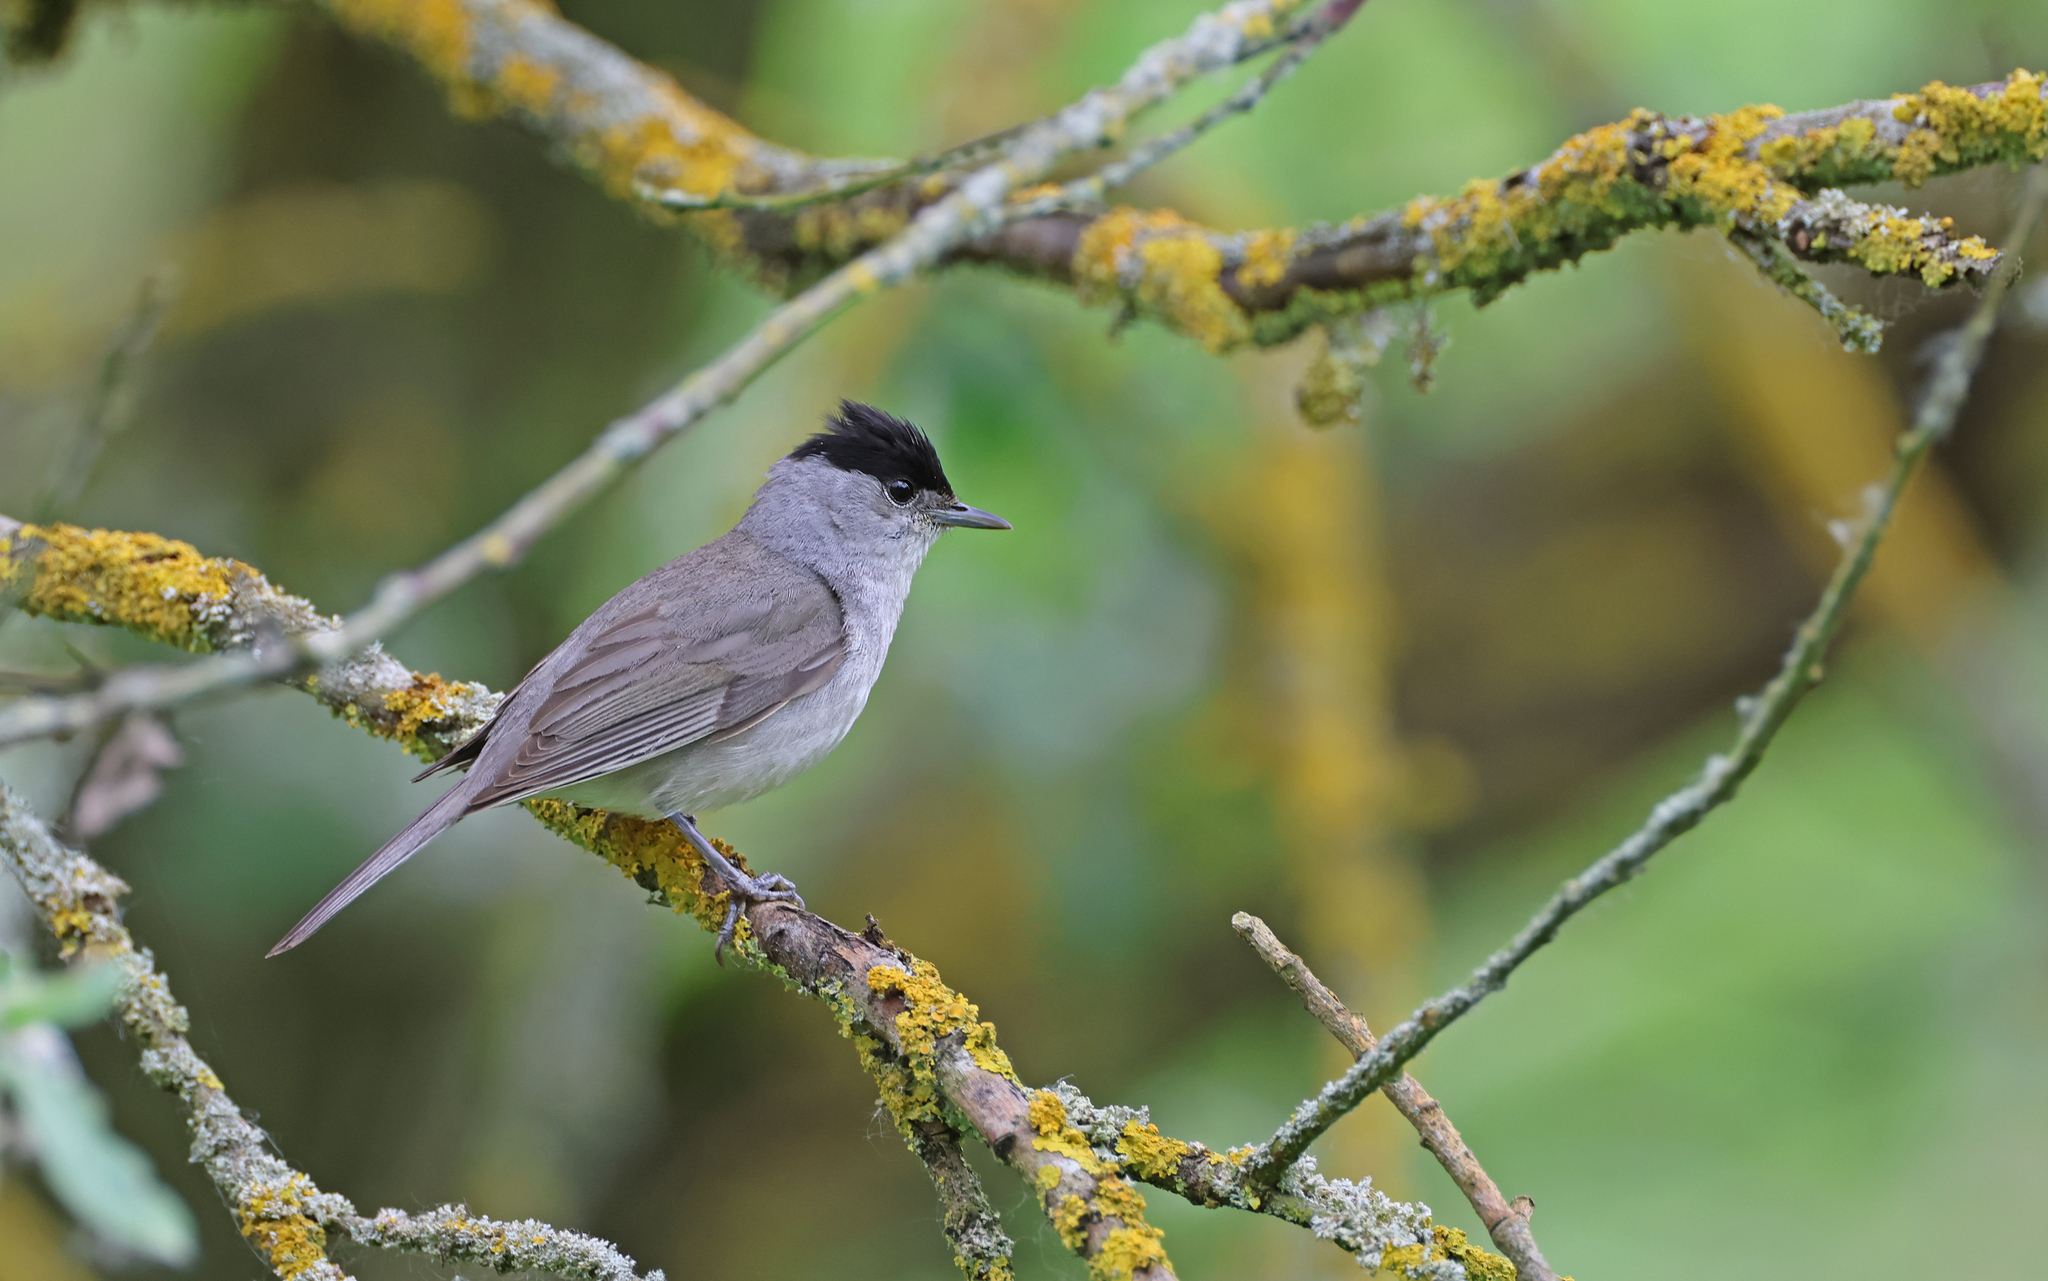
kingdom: Animalia
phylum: Chordata
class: Aves
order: Passeriformes
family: Sylviidae
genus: Sylvia
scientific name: Sylvia atricapilla
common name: Eurasian blackcap
